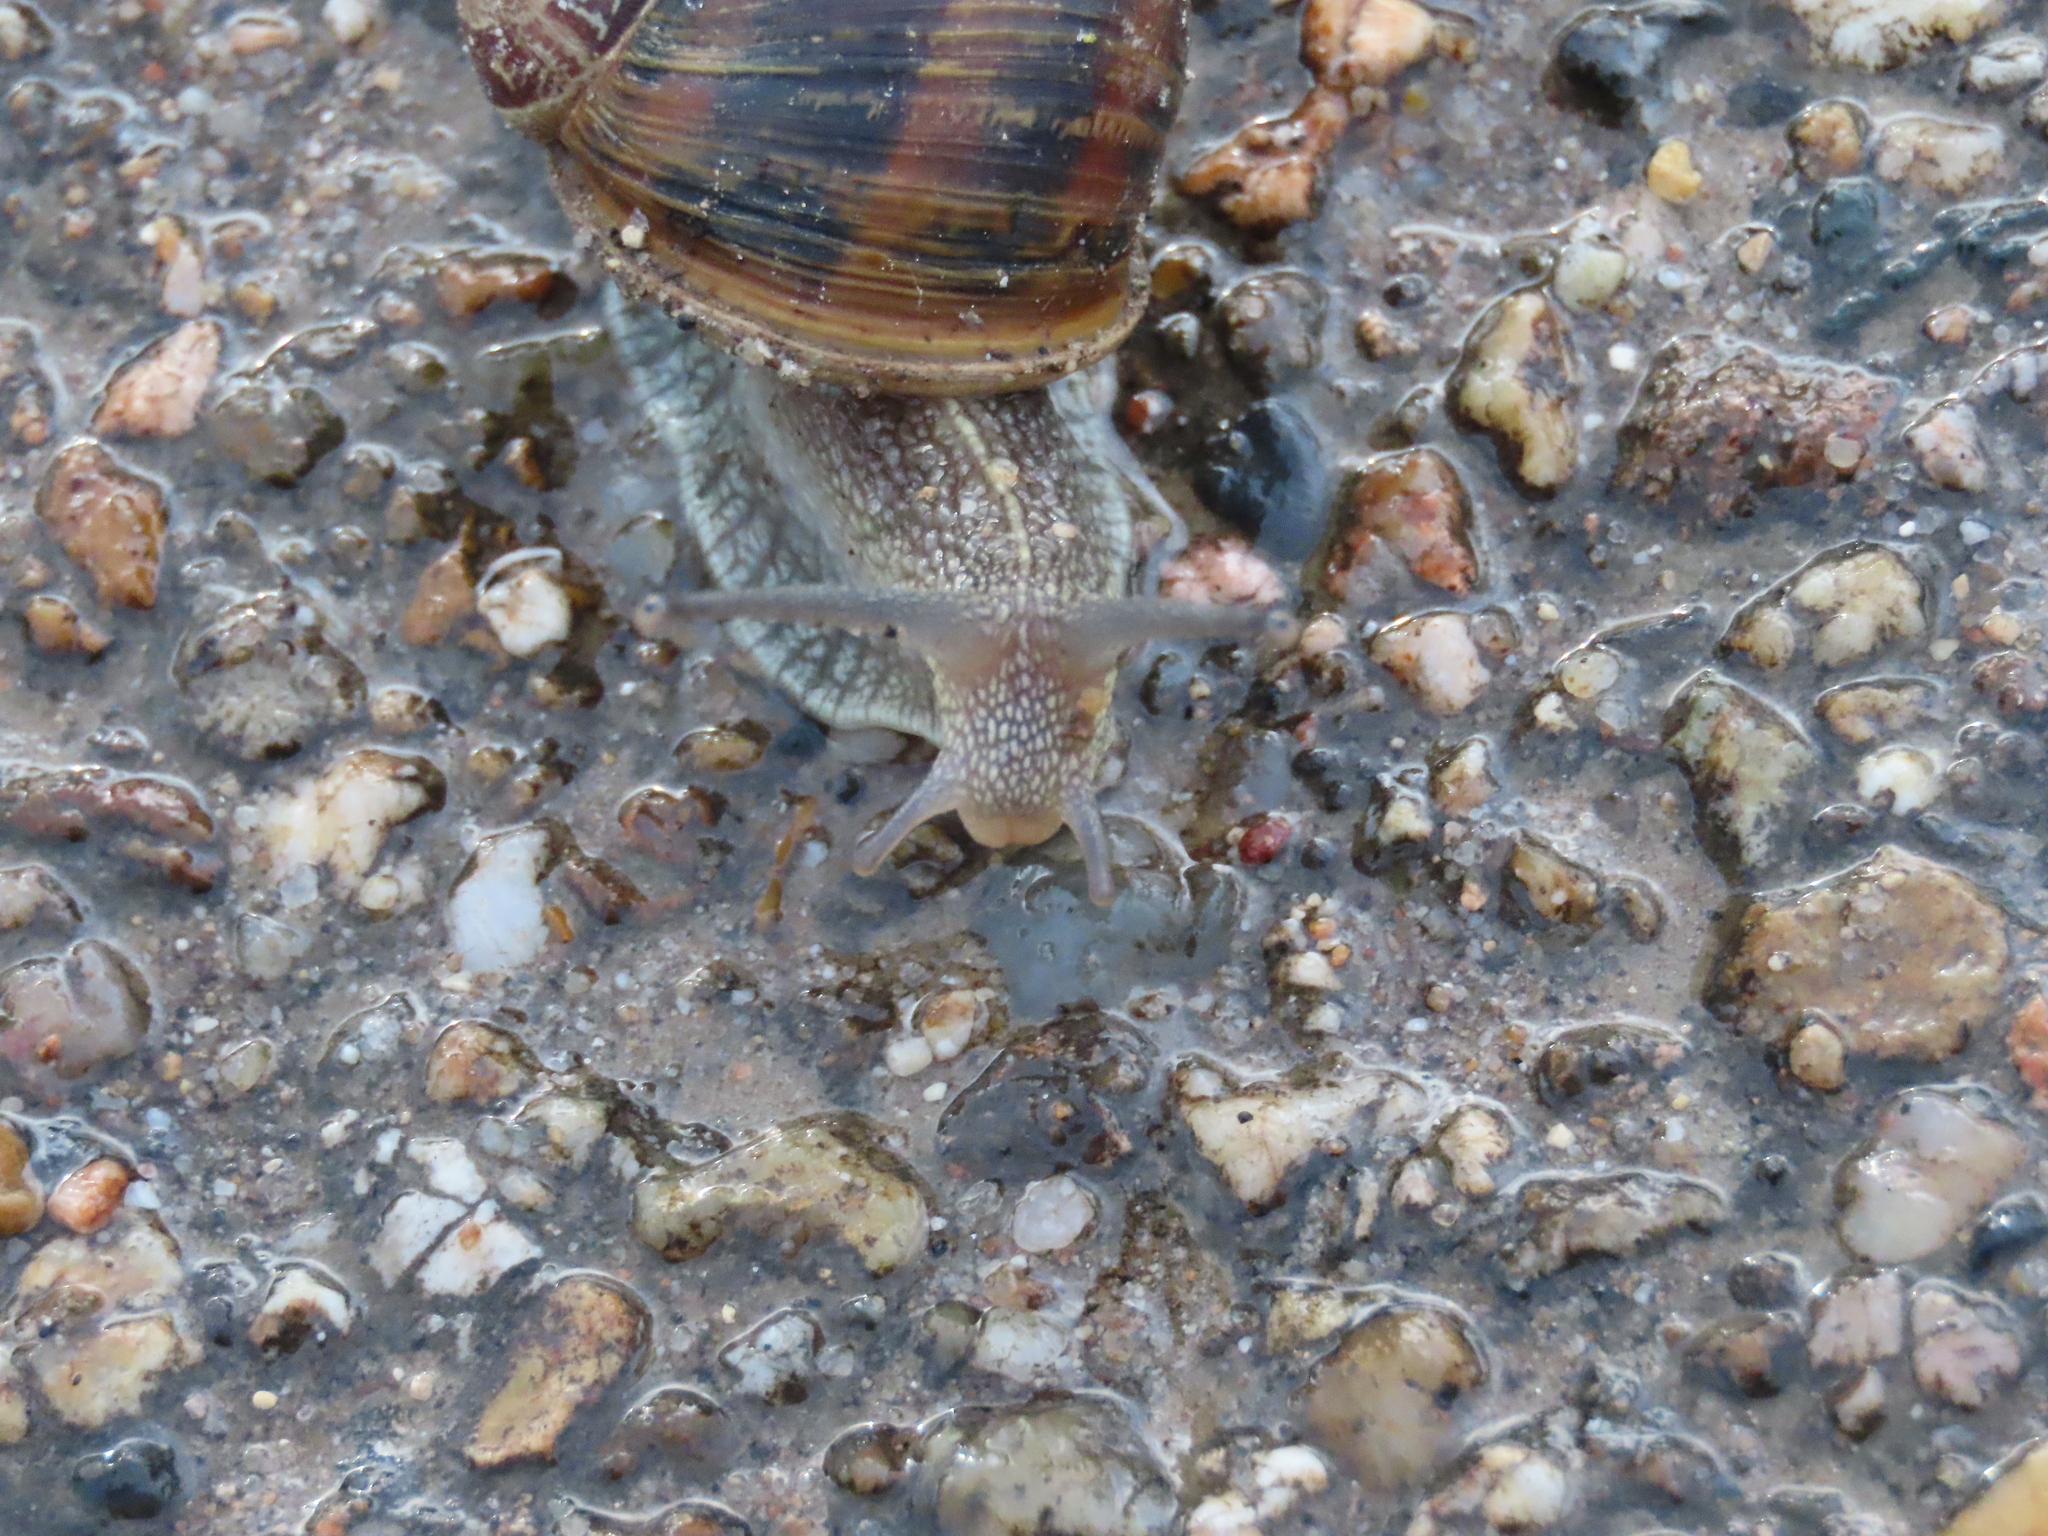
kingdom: Animalia
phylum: Mollusca
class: Gastropoda
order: Stylommatophora
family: Helicidae
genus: Cornu
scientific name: Cornu aspersum
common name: Brown garden snail
